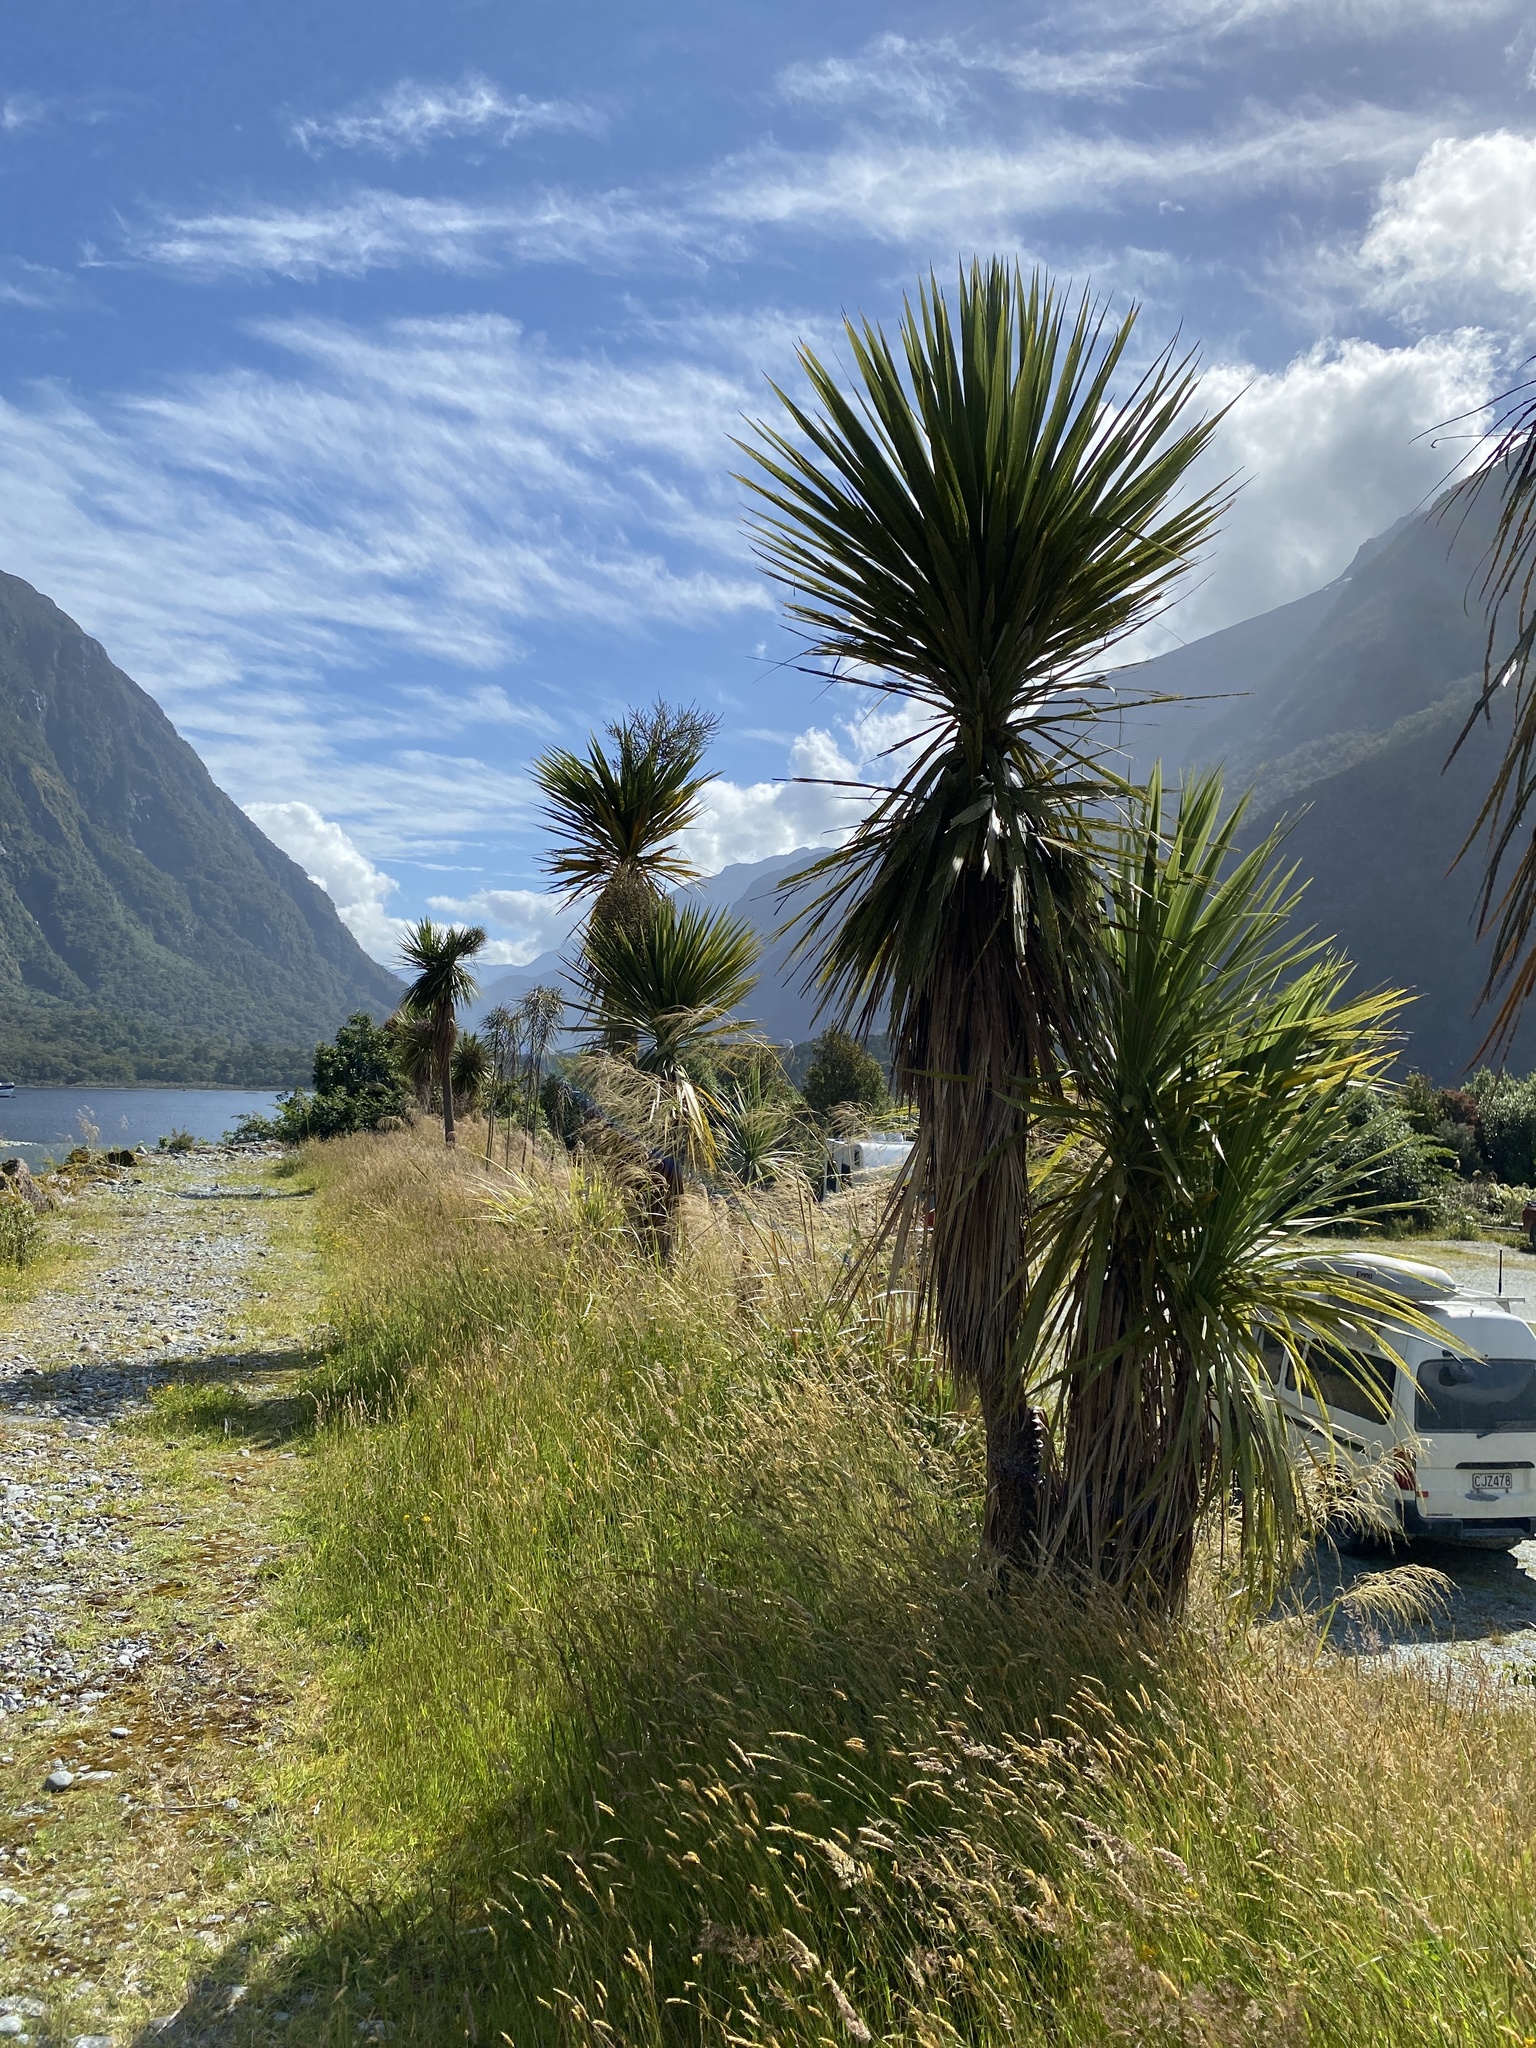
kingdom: Plantae
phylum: Tracheophyta
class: Liliopsida
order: Asparagales
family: Asparagaceae
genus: Cordyline
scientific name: Cordyline australis
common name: Cabbage-palm
